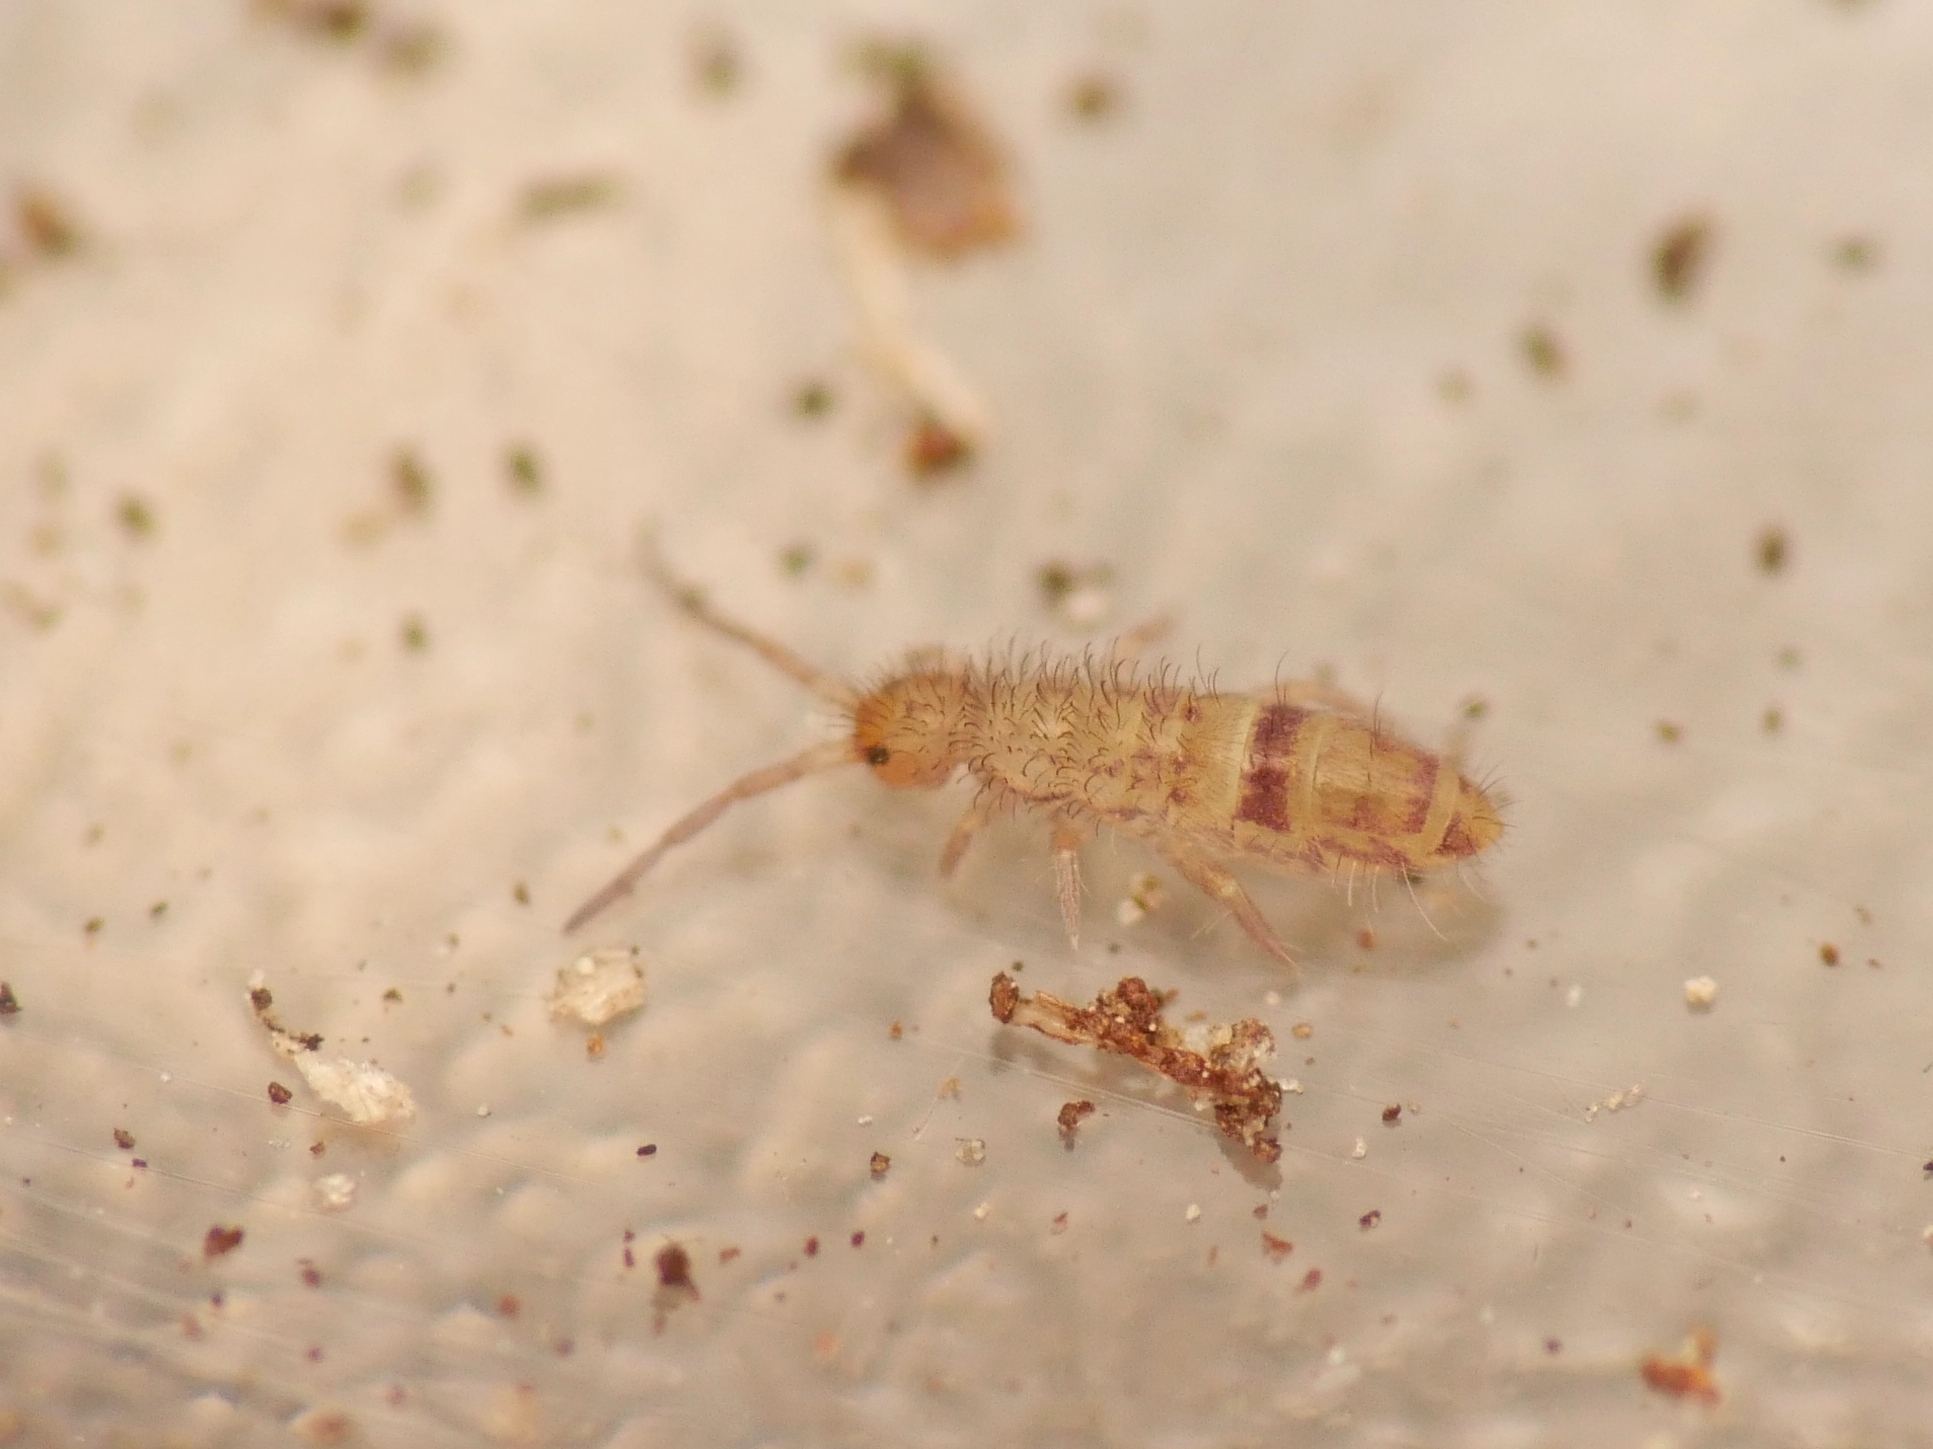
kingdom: Animalia
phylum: Arthropoda
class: Collembola
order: Entomobryomorpha
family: Orchesellidae
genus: Orchesella
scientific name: Orchesella cincta
